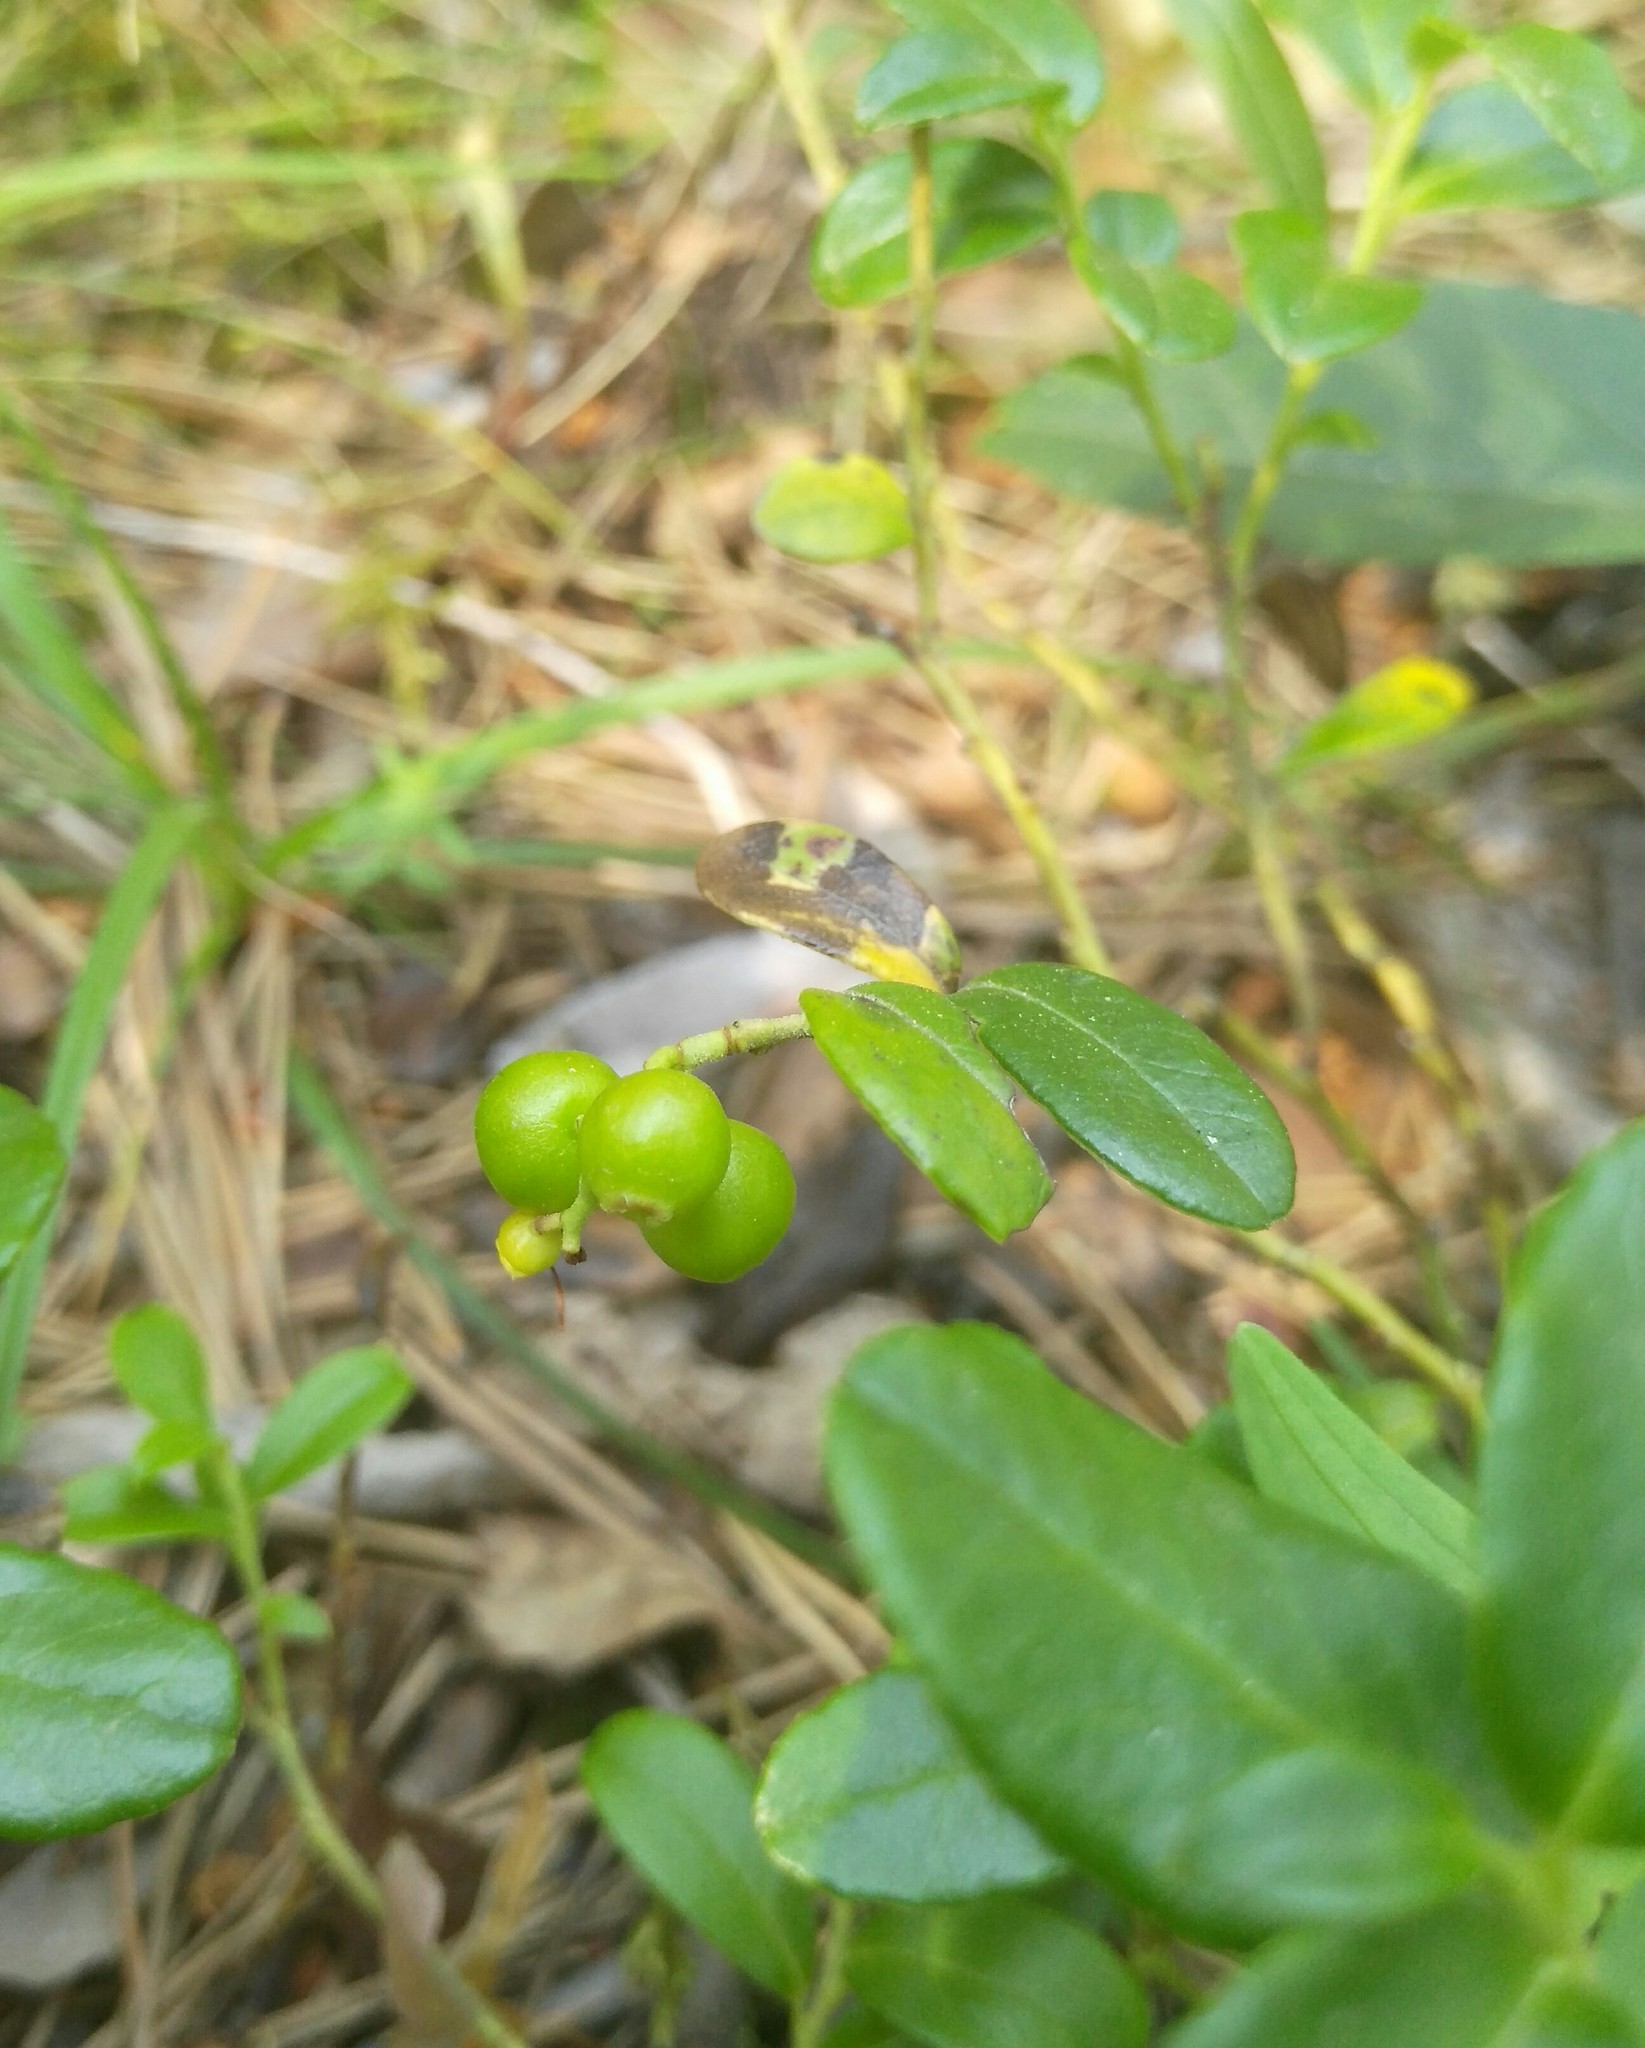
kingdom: Plantae
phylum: Tracheophyta
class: Magnoliopsida
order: Ericales
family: Ericaceae
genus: Vaccinium
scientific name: Vaccinium vitis-idaea
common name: Cowberry
